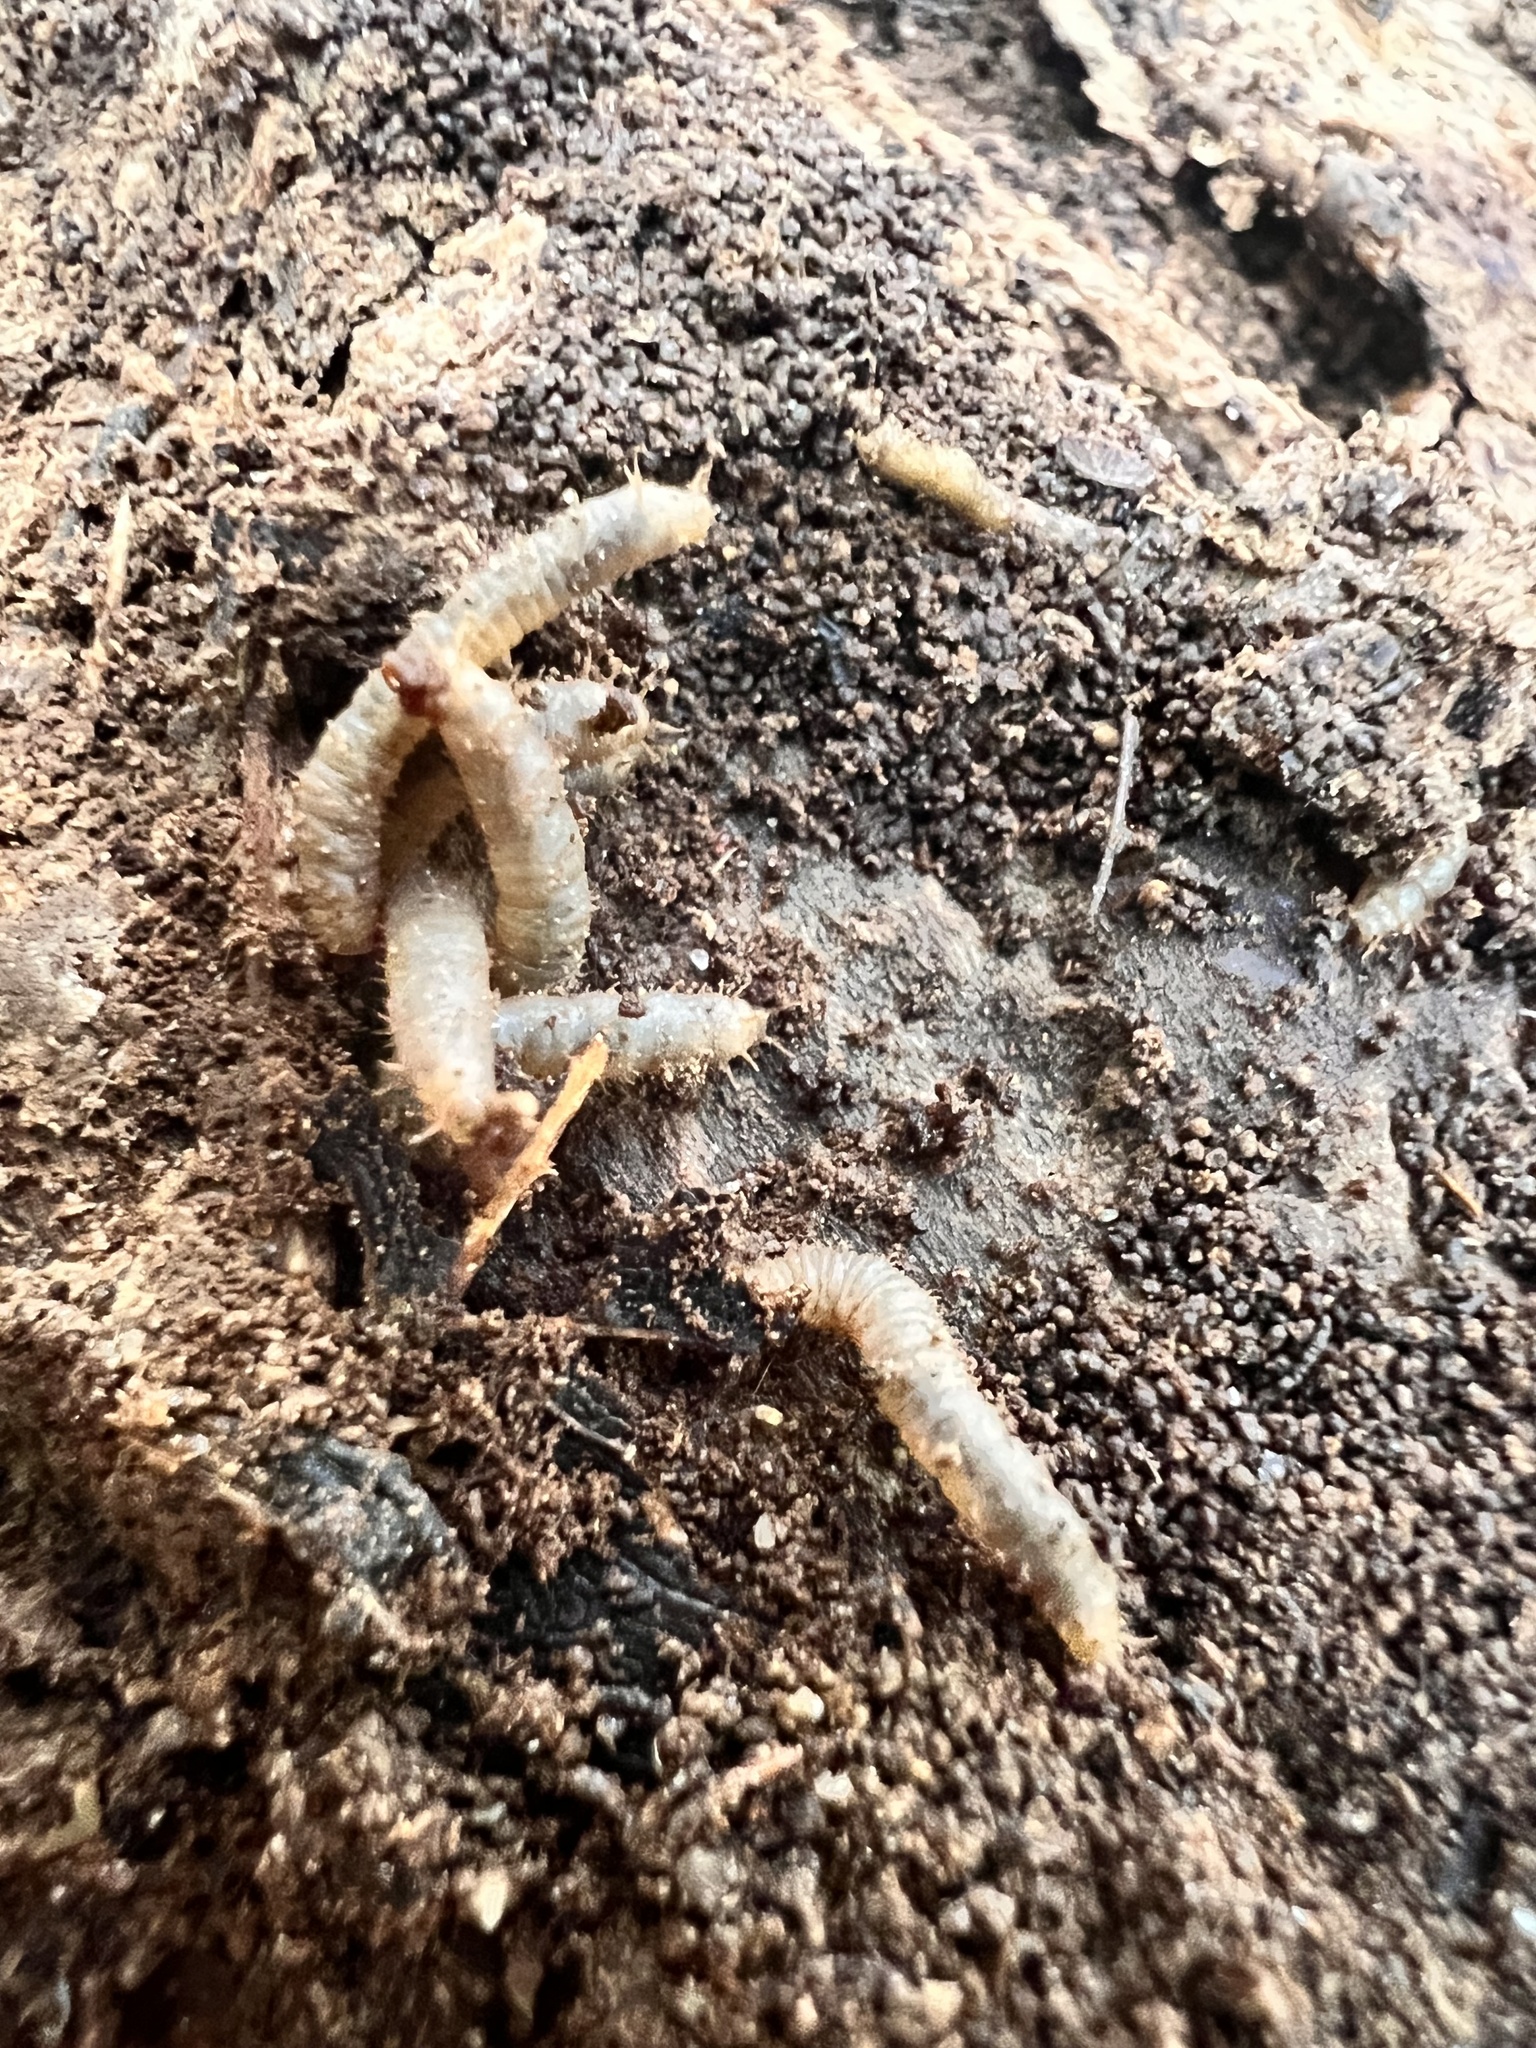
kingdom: Animalia
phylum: Arthropoda
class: Insecta
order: Diptera
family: Bibionidae
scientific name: Bibionidae
